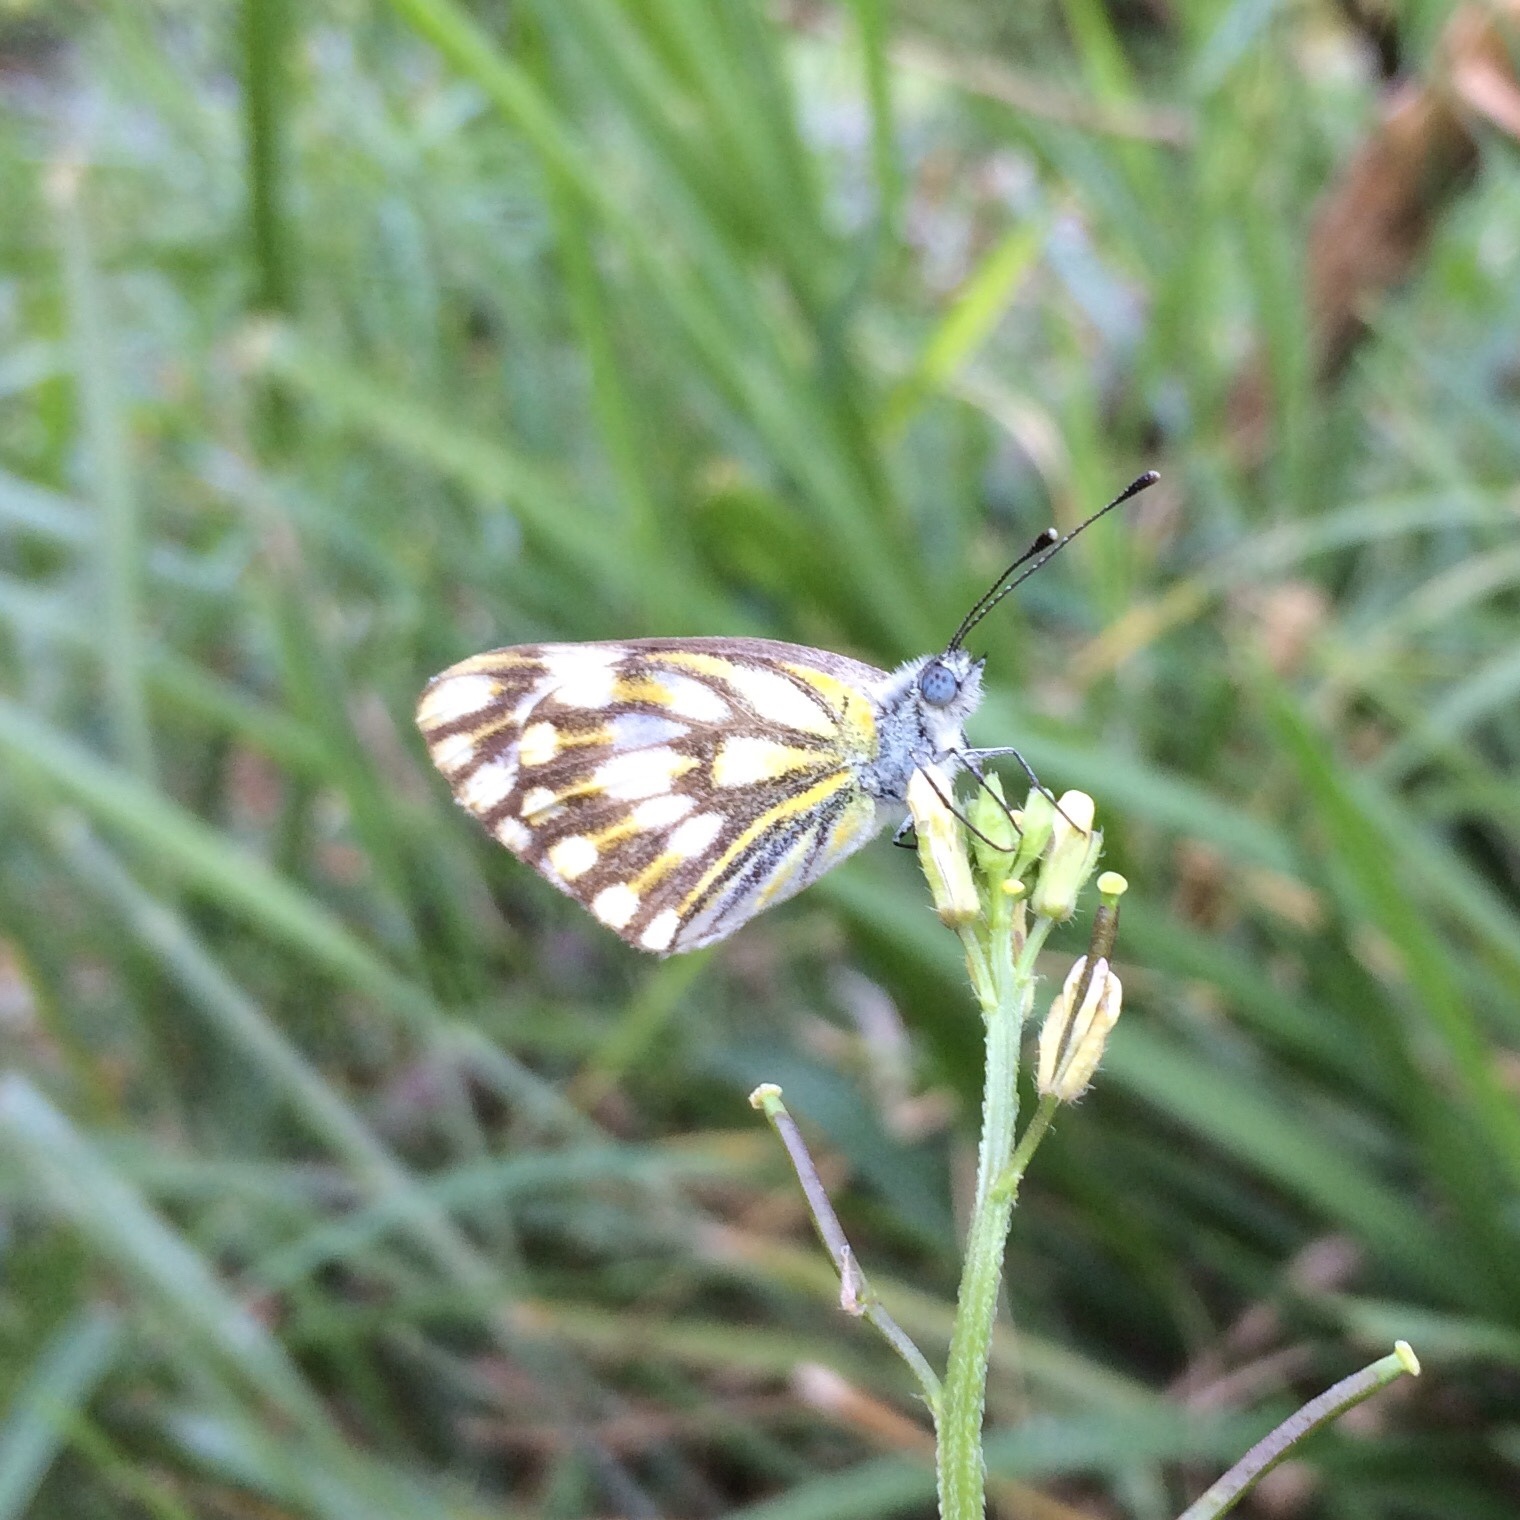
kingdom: Animalia
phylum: Arthropoda
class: Insecta
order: Lepidoptera
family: Pieridae
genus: Pontia
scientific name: Pontia helice
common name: Meadow white
